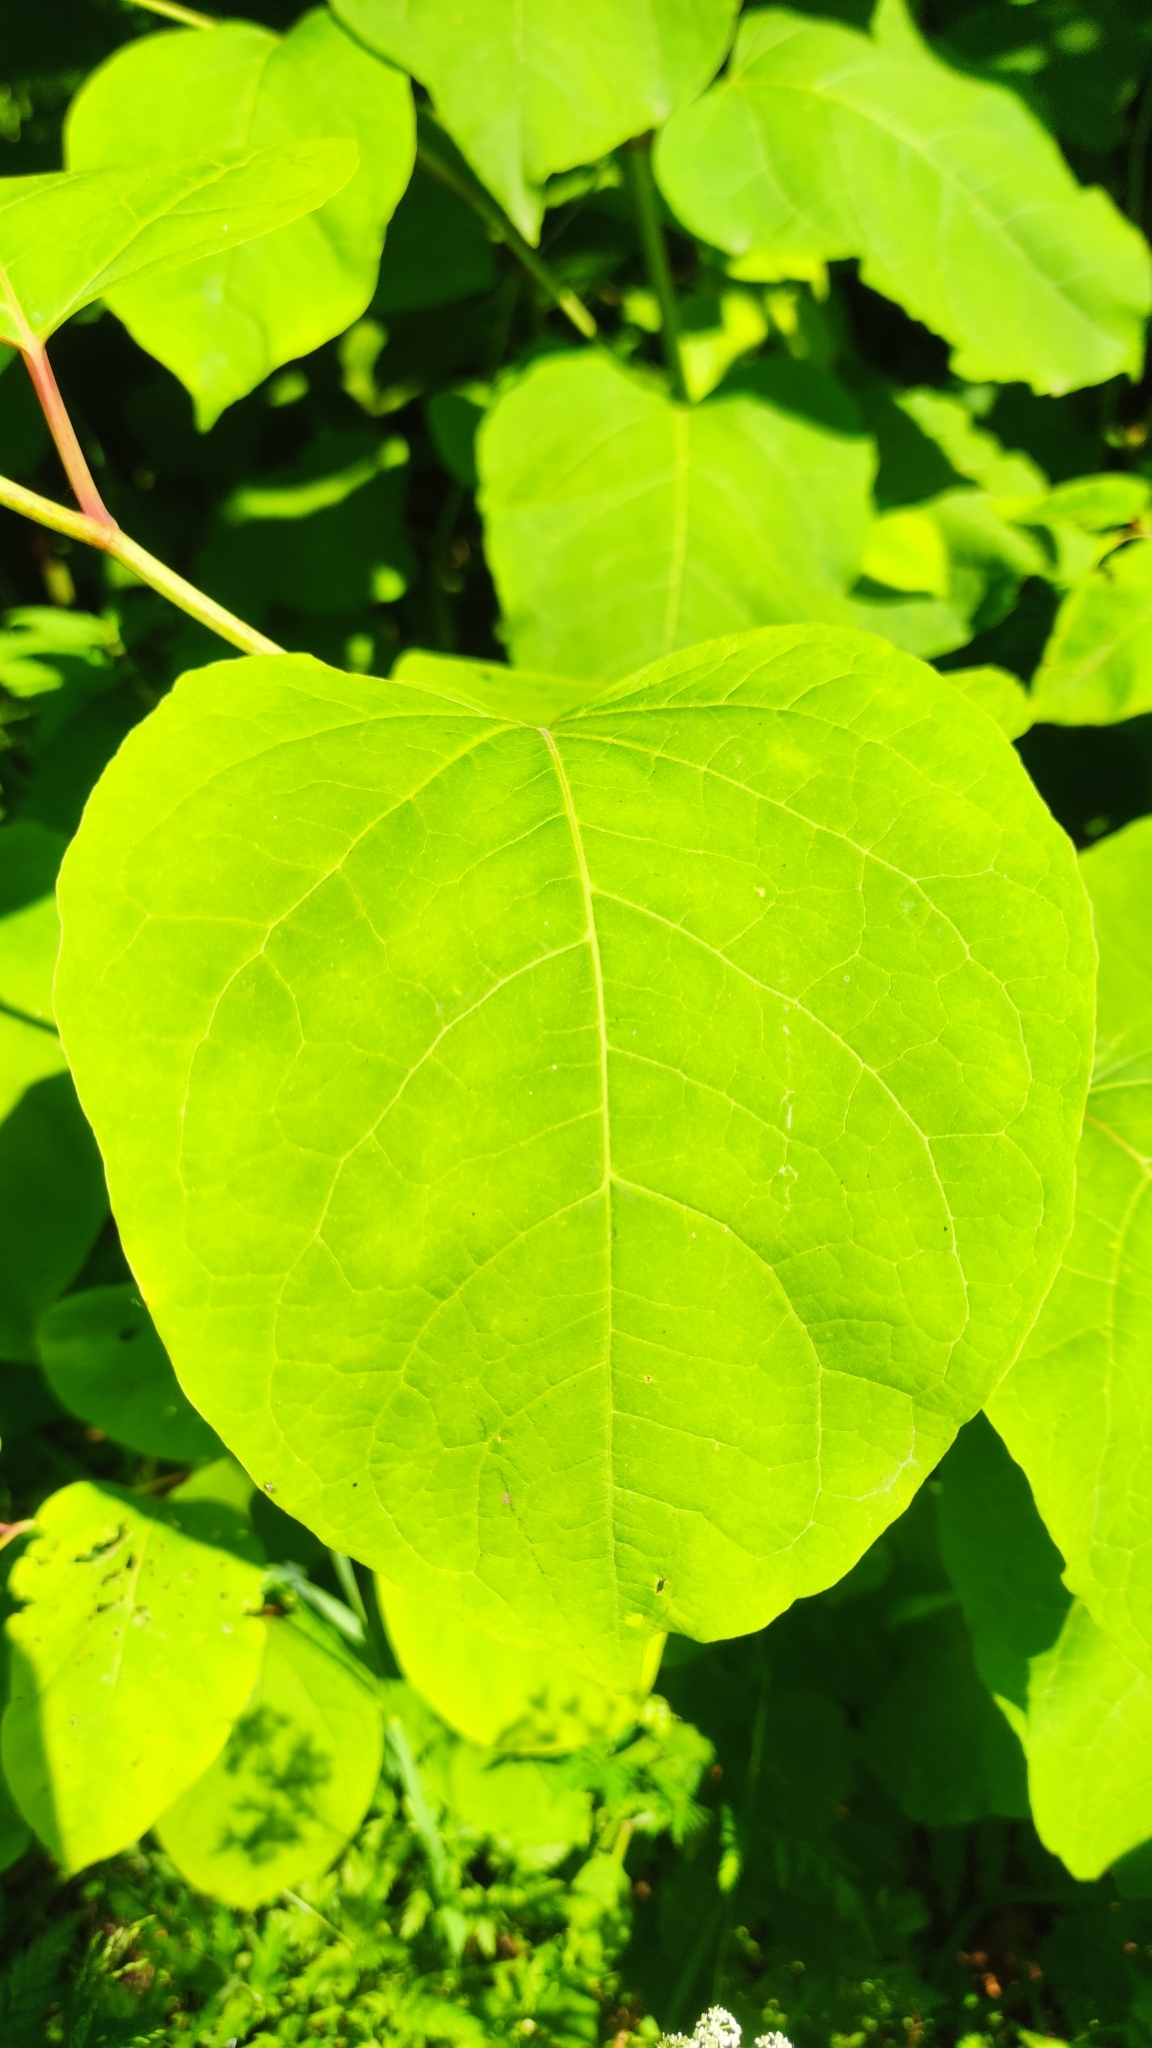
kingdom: Plantae
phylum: Tracheophyta
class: Magnoliopsida
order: Caryophyllales
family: Polygonaceae
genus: Reynoutria
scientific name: Reynoutria bohemica
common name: Bohemian knotweed
